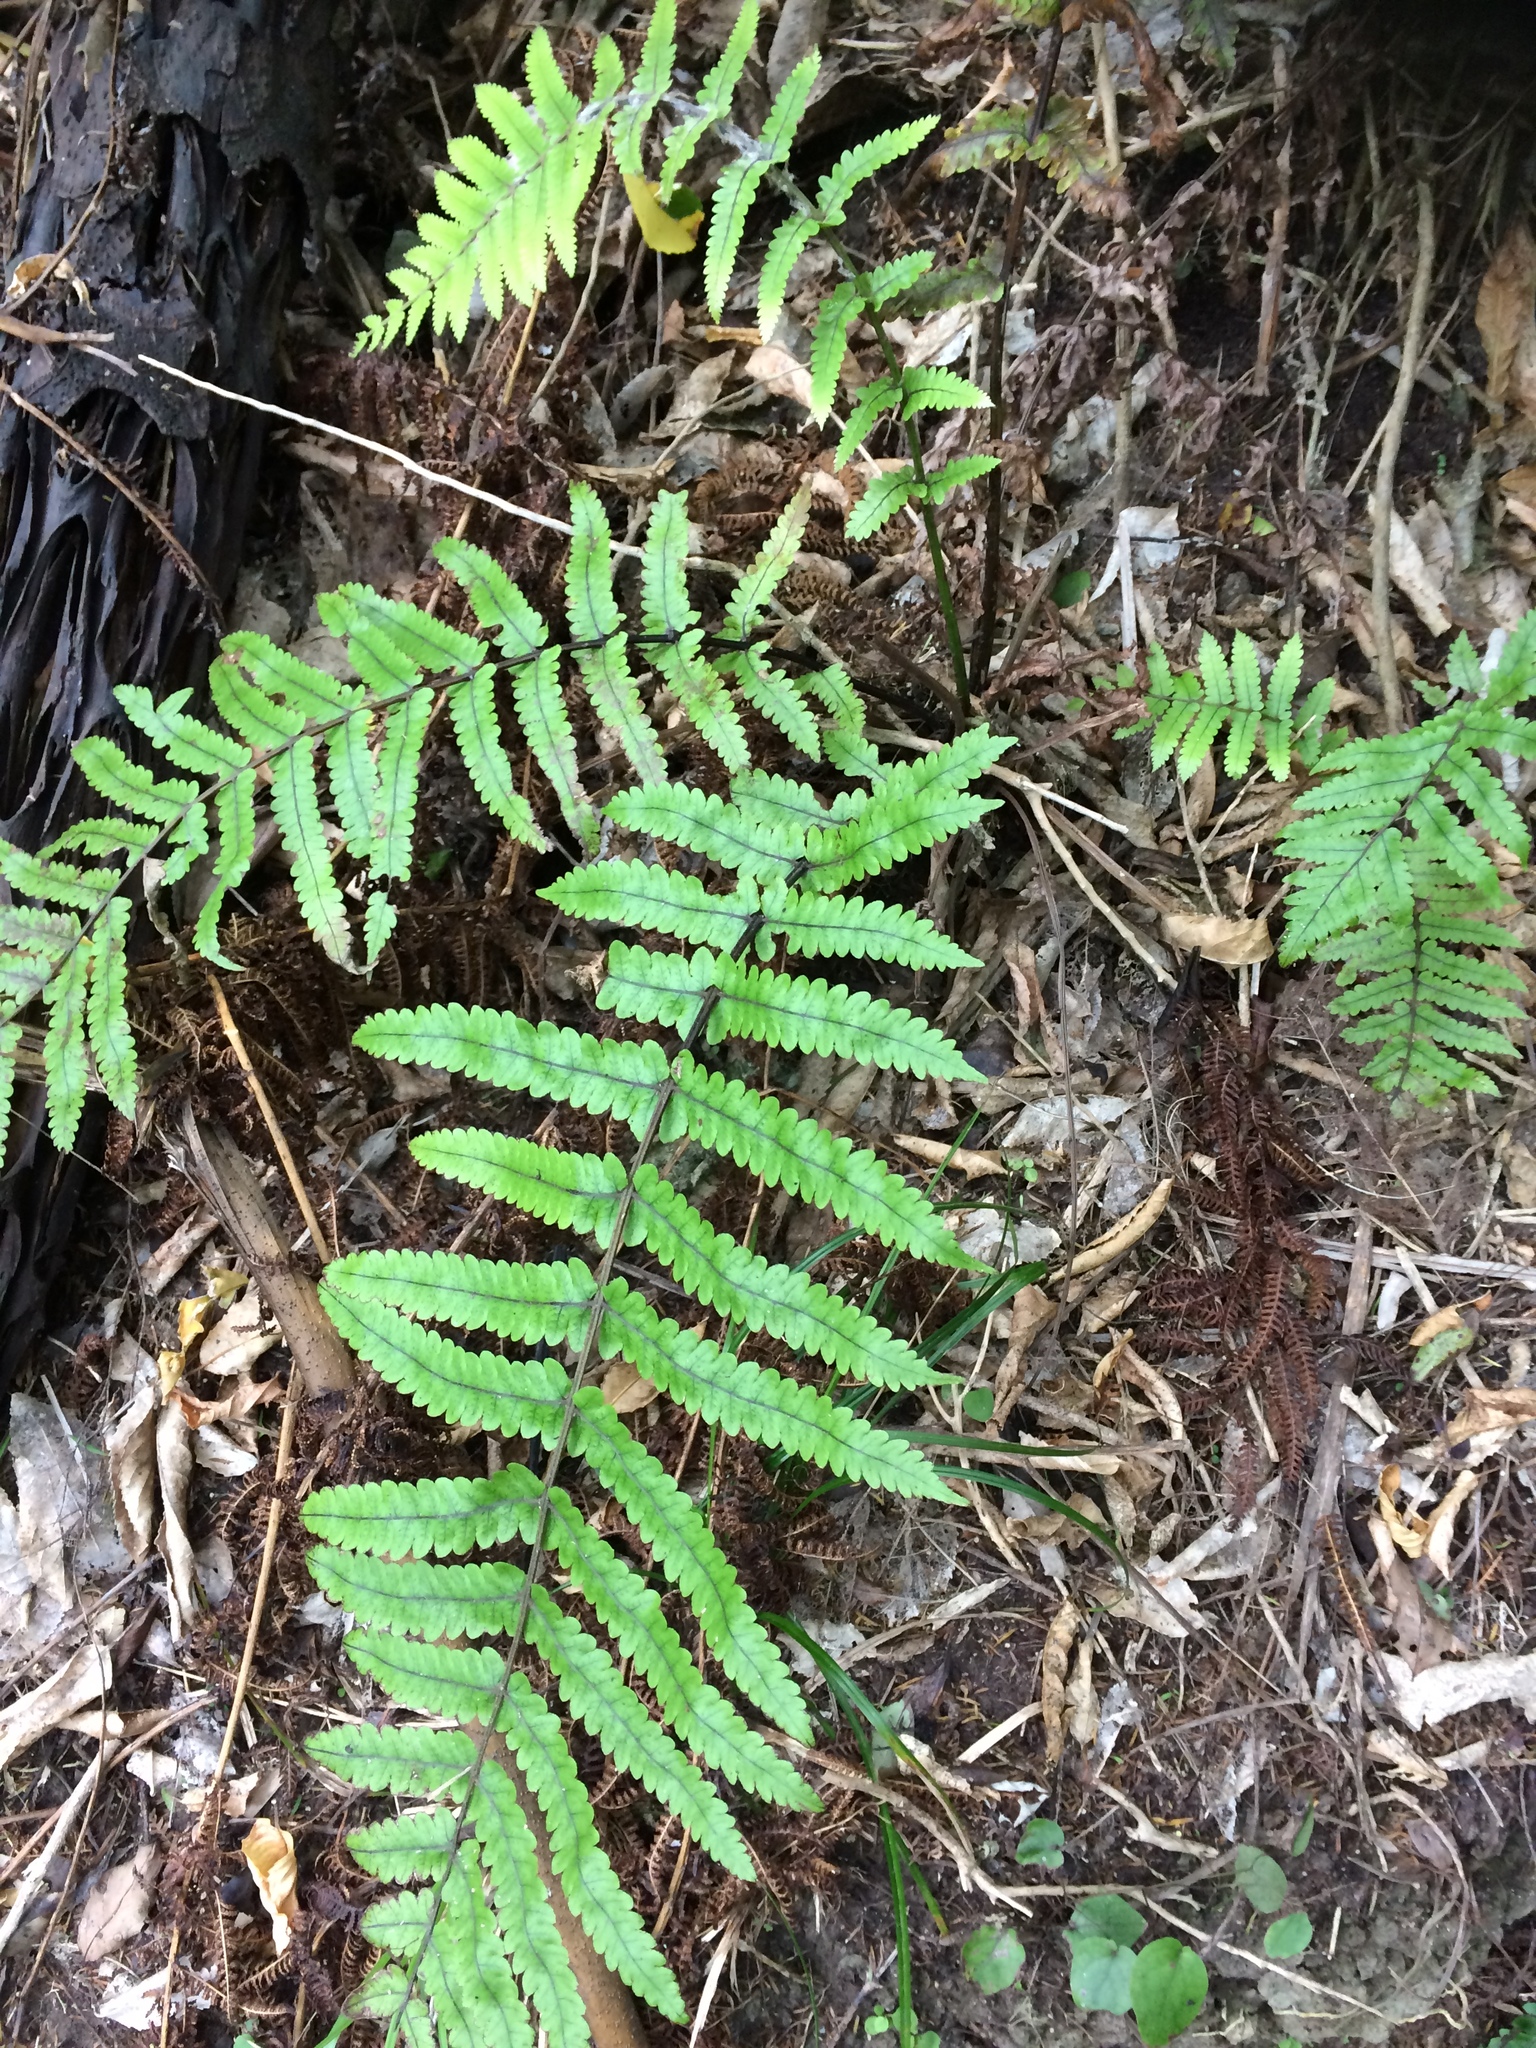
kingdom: Plantae
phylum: Tracheophyta
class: Polypodiopsida
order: Polypodiales
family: Thelypteridaceae
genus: Pakau
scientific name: Pakau pennigera
